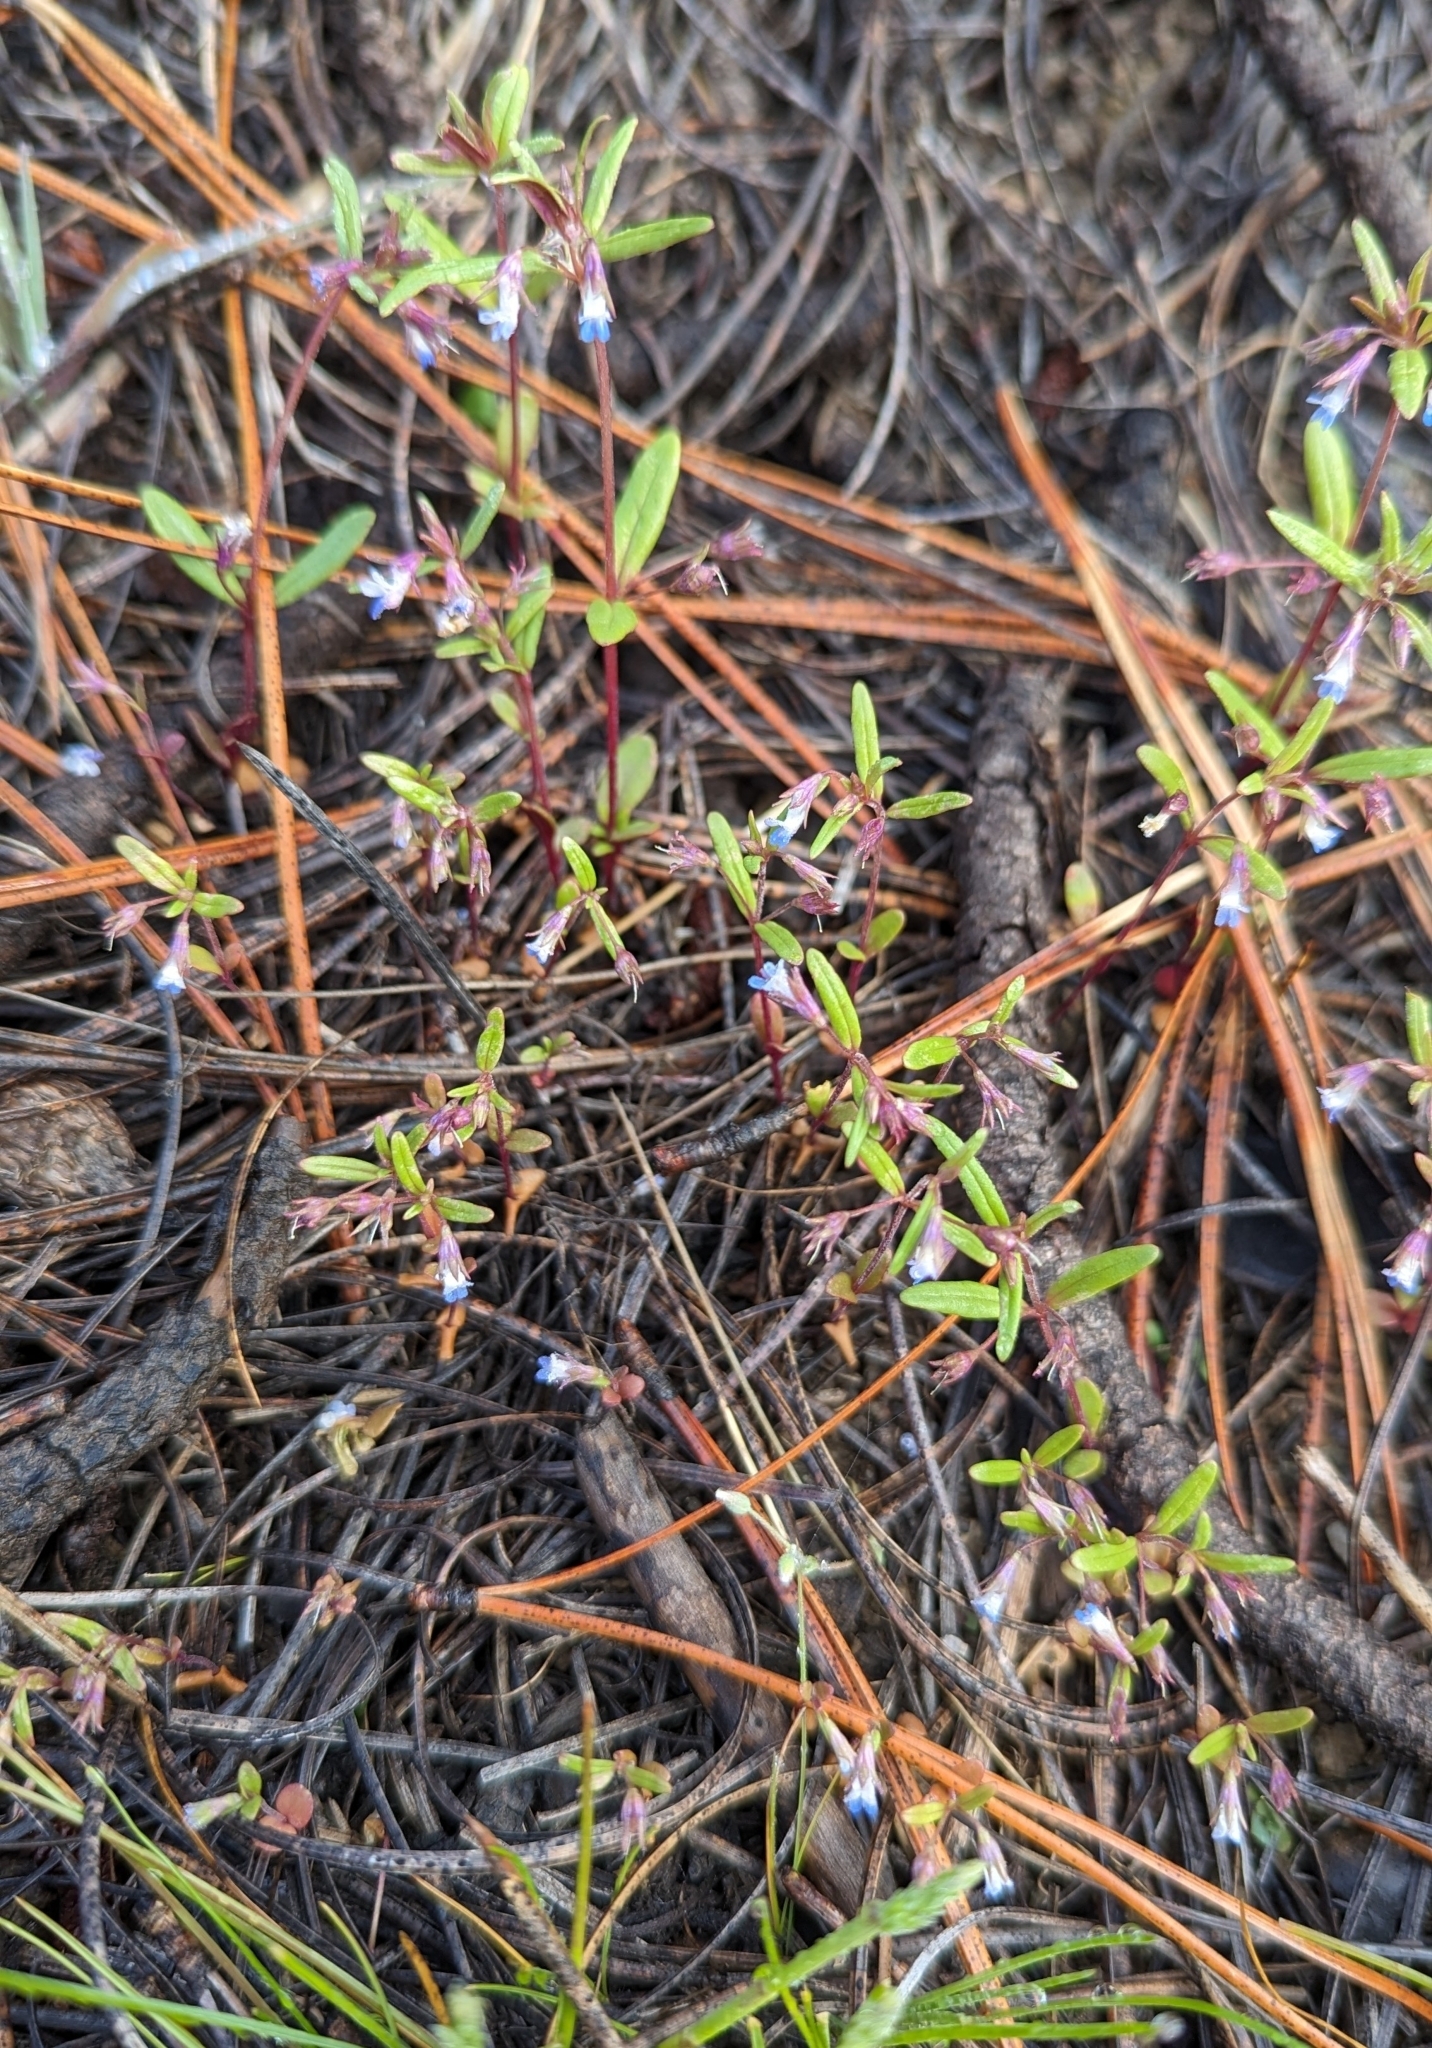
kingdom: Plantae
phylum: Tracheophyta
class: Magnoliopsida
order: Lamiales
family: Plantaginaceae
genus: Collinsia
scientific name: Collinsia parviflora
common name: Blue-lips
